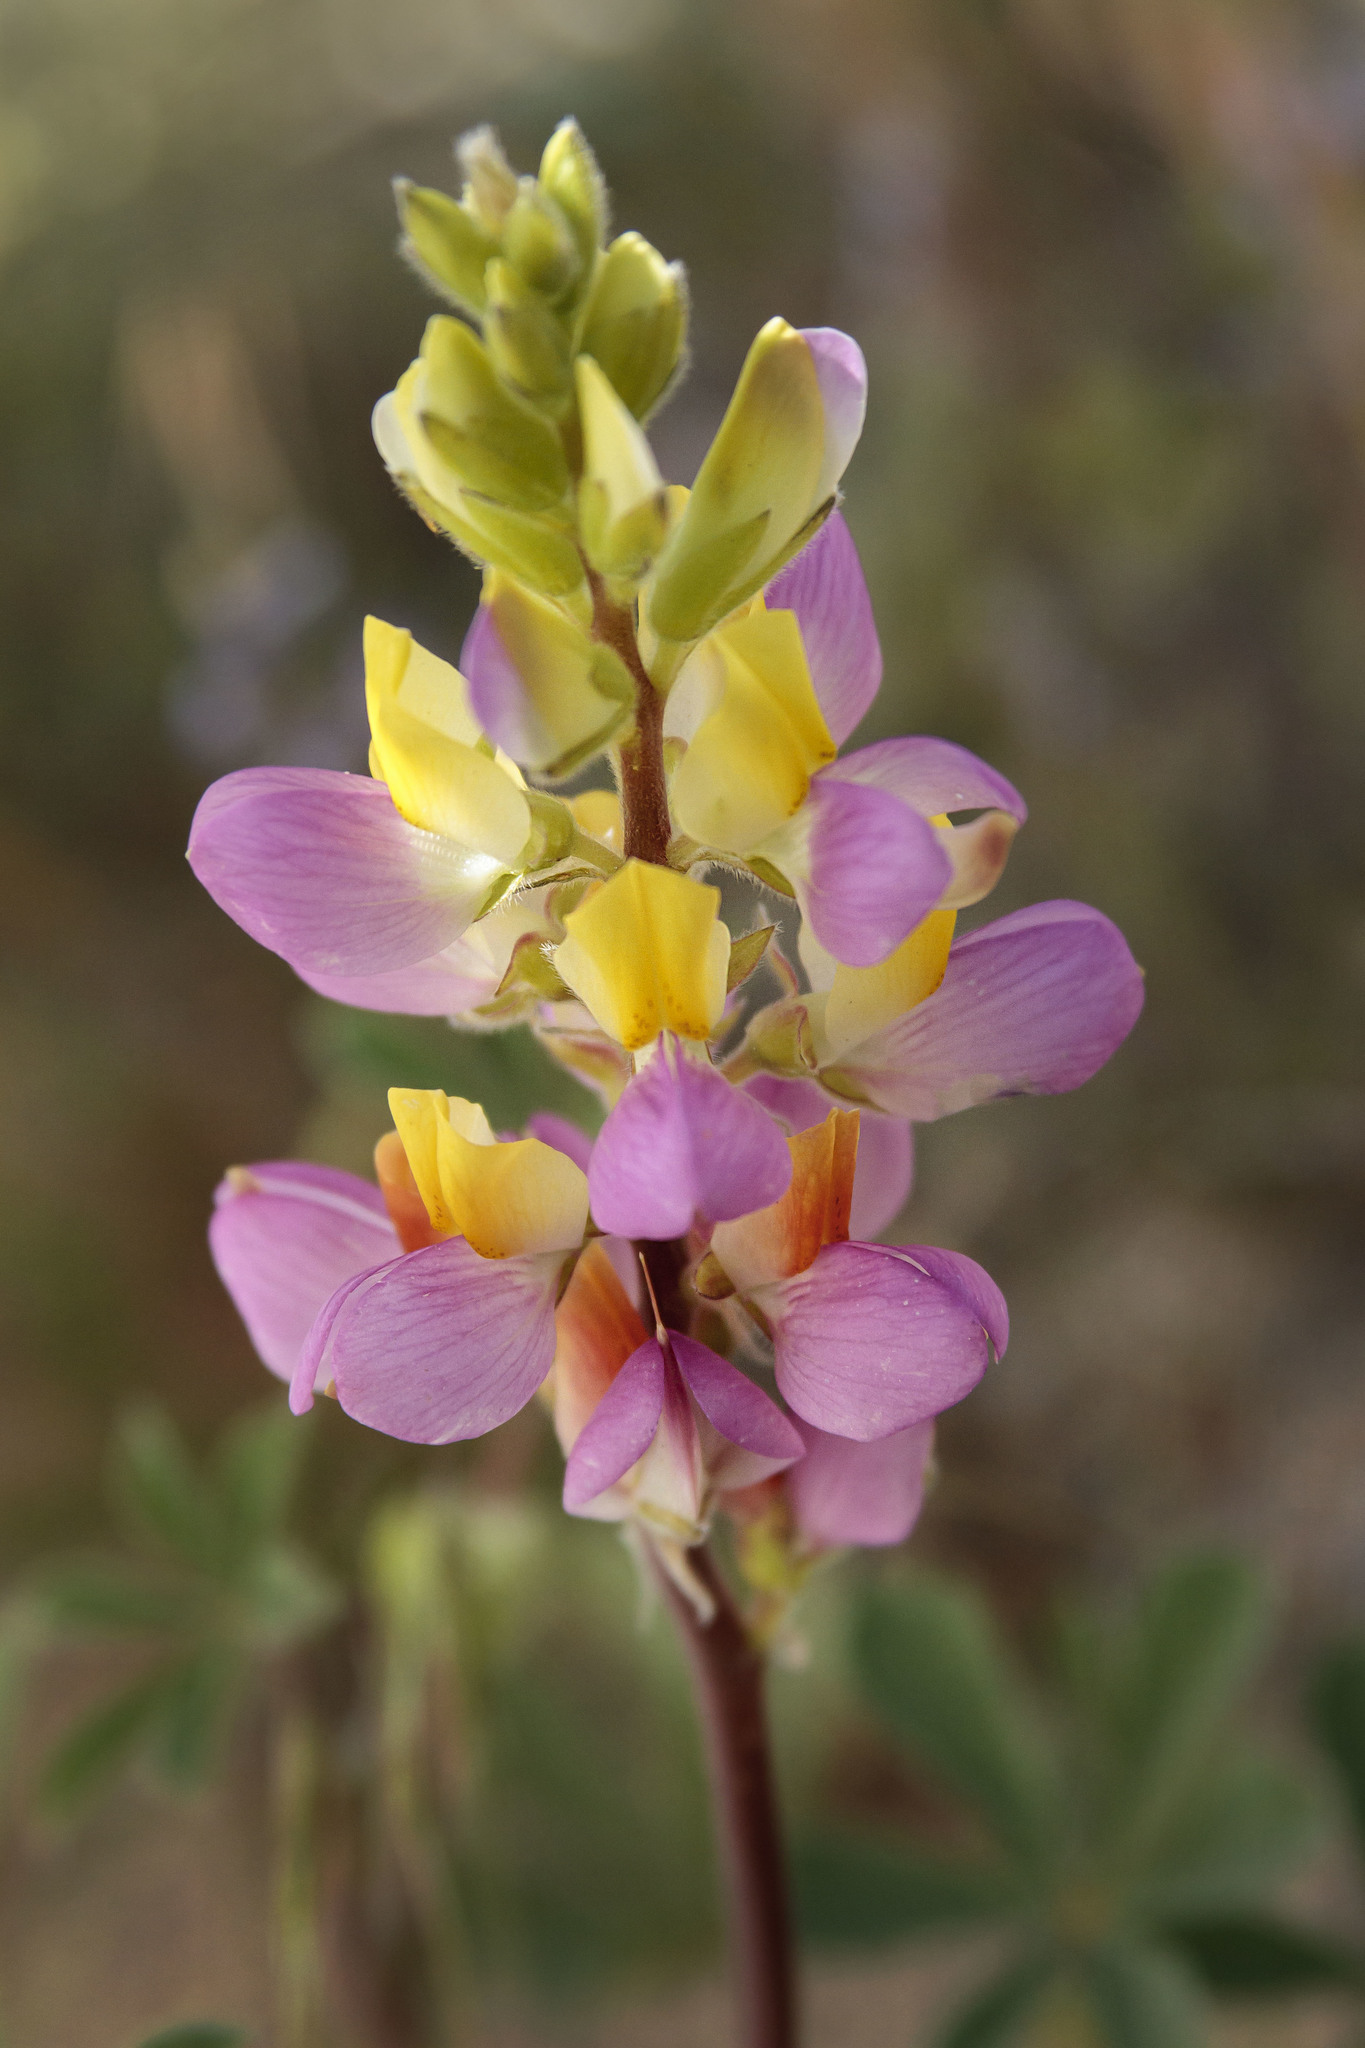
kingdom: Plantae
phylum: Tracheophyta
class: Magnoliopsida
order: Fabales
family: Fabaceae
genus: Lupinus
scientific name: Lupinus stiversii
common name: Harlequin lupine
